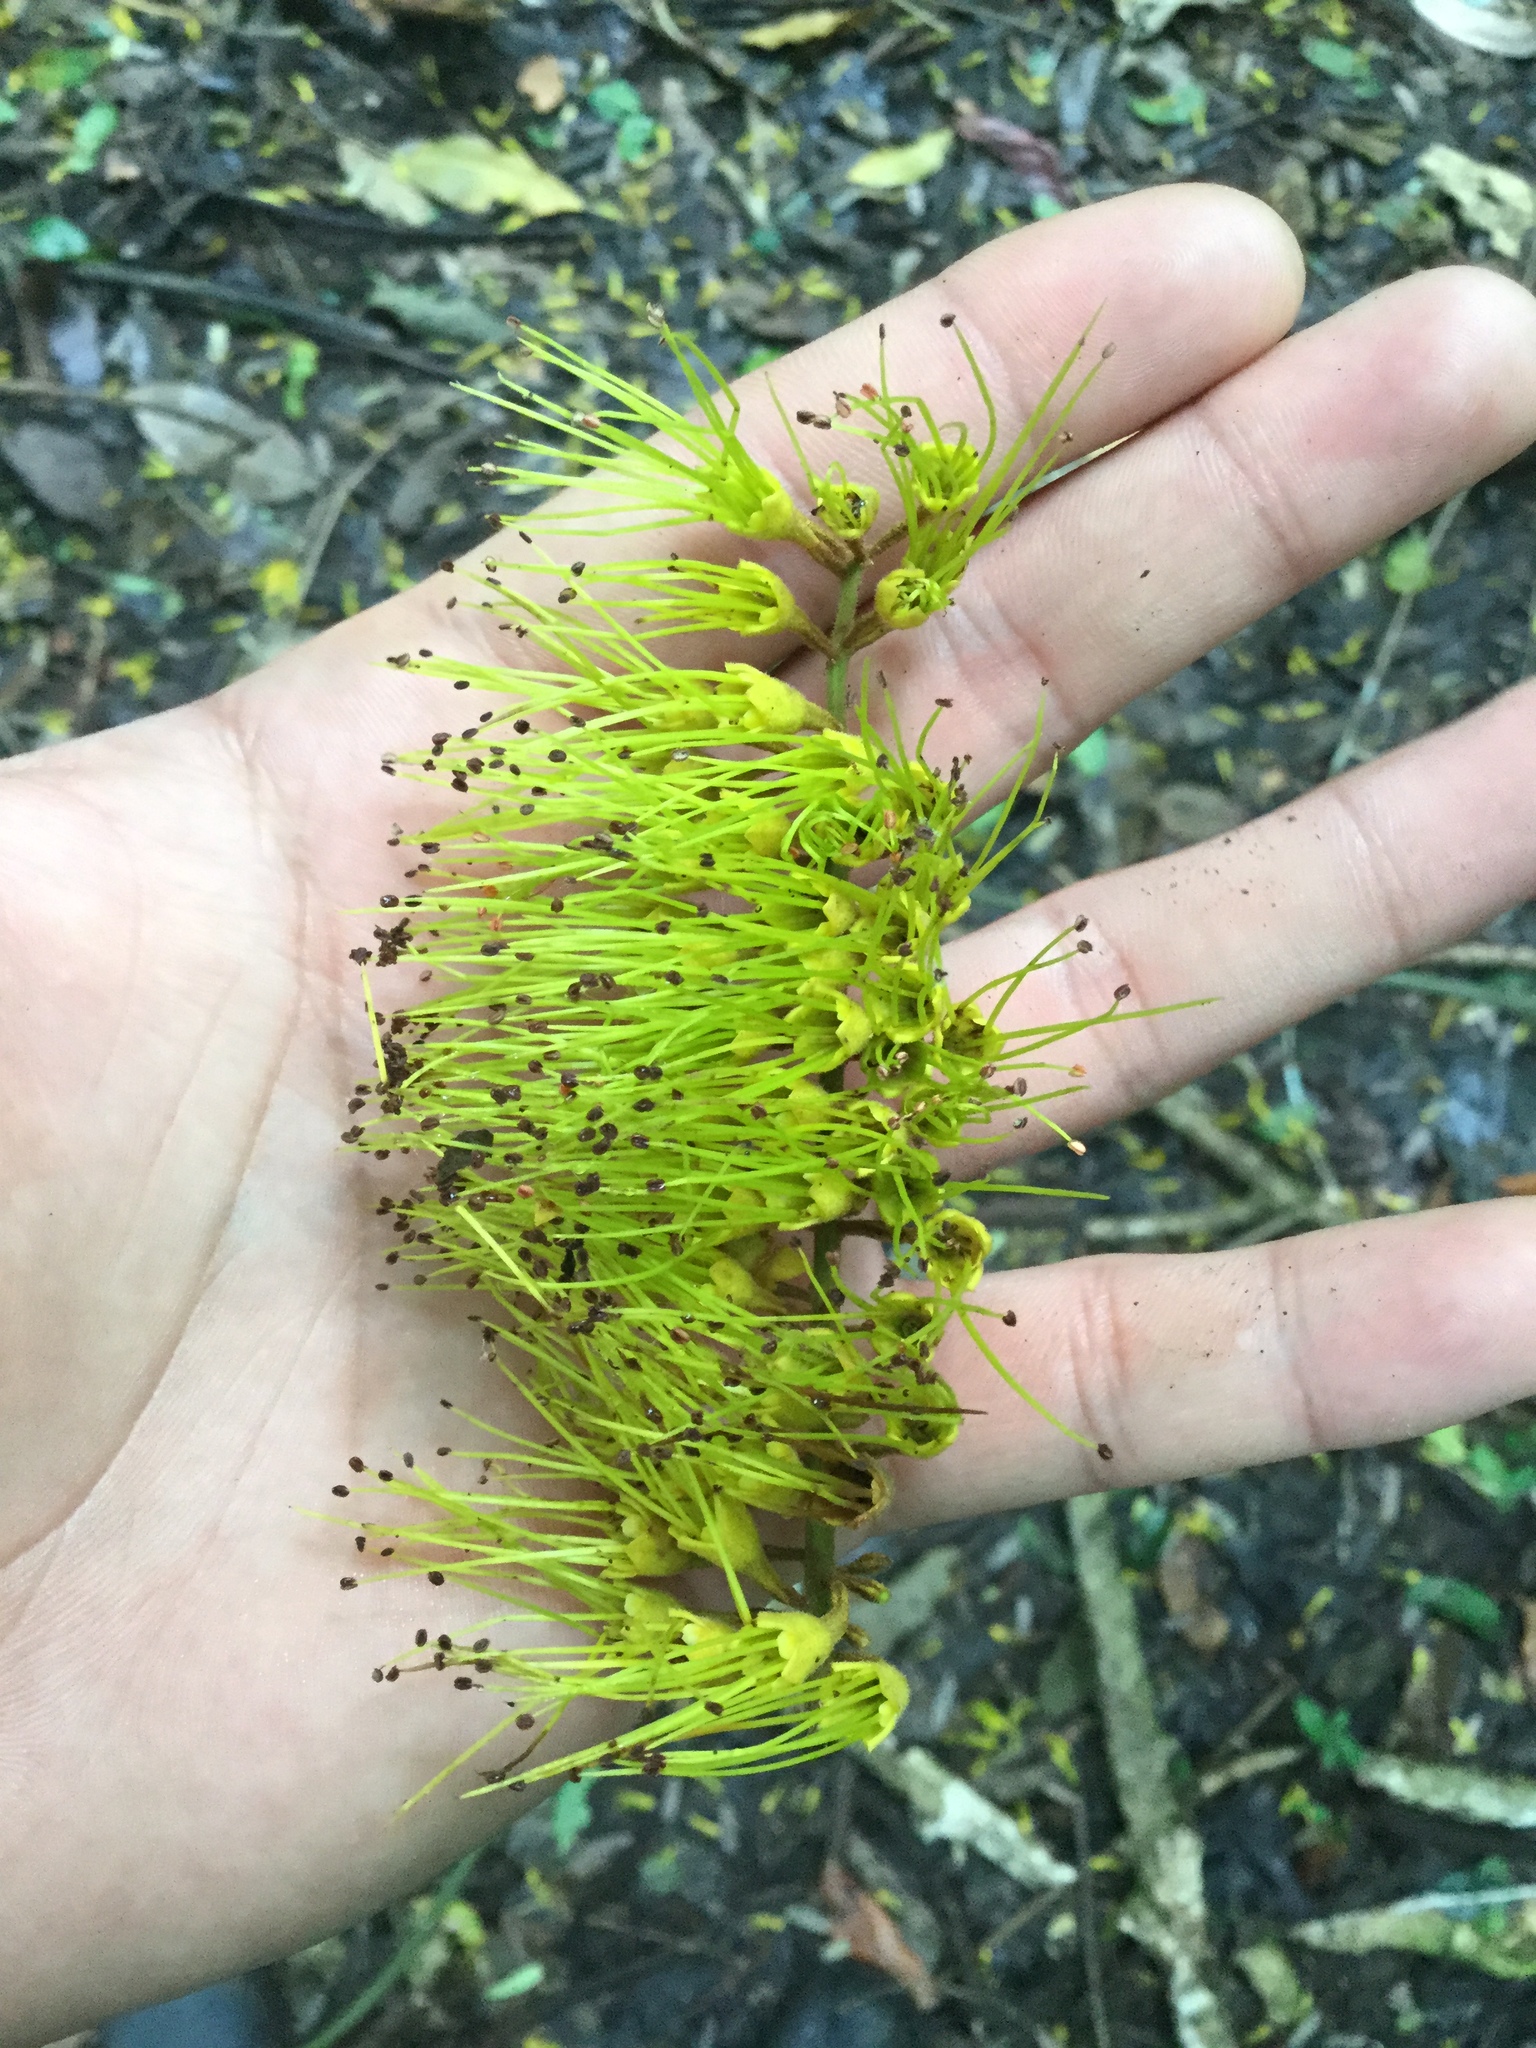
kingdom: Plantae
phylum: Tracheophyta
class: Magnoliopsida
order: Myrtales
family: Combretaceae
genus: Combretum
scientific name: Combretum fruticosum
